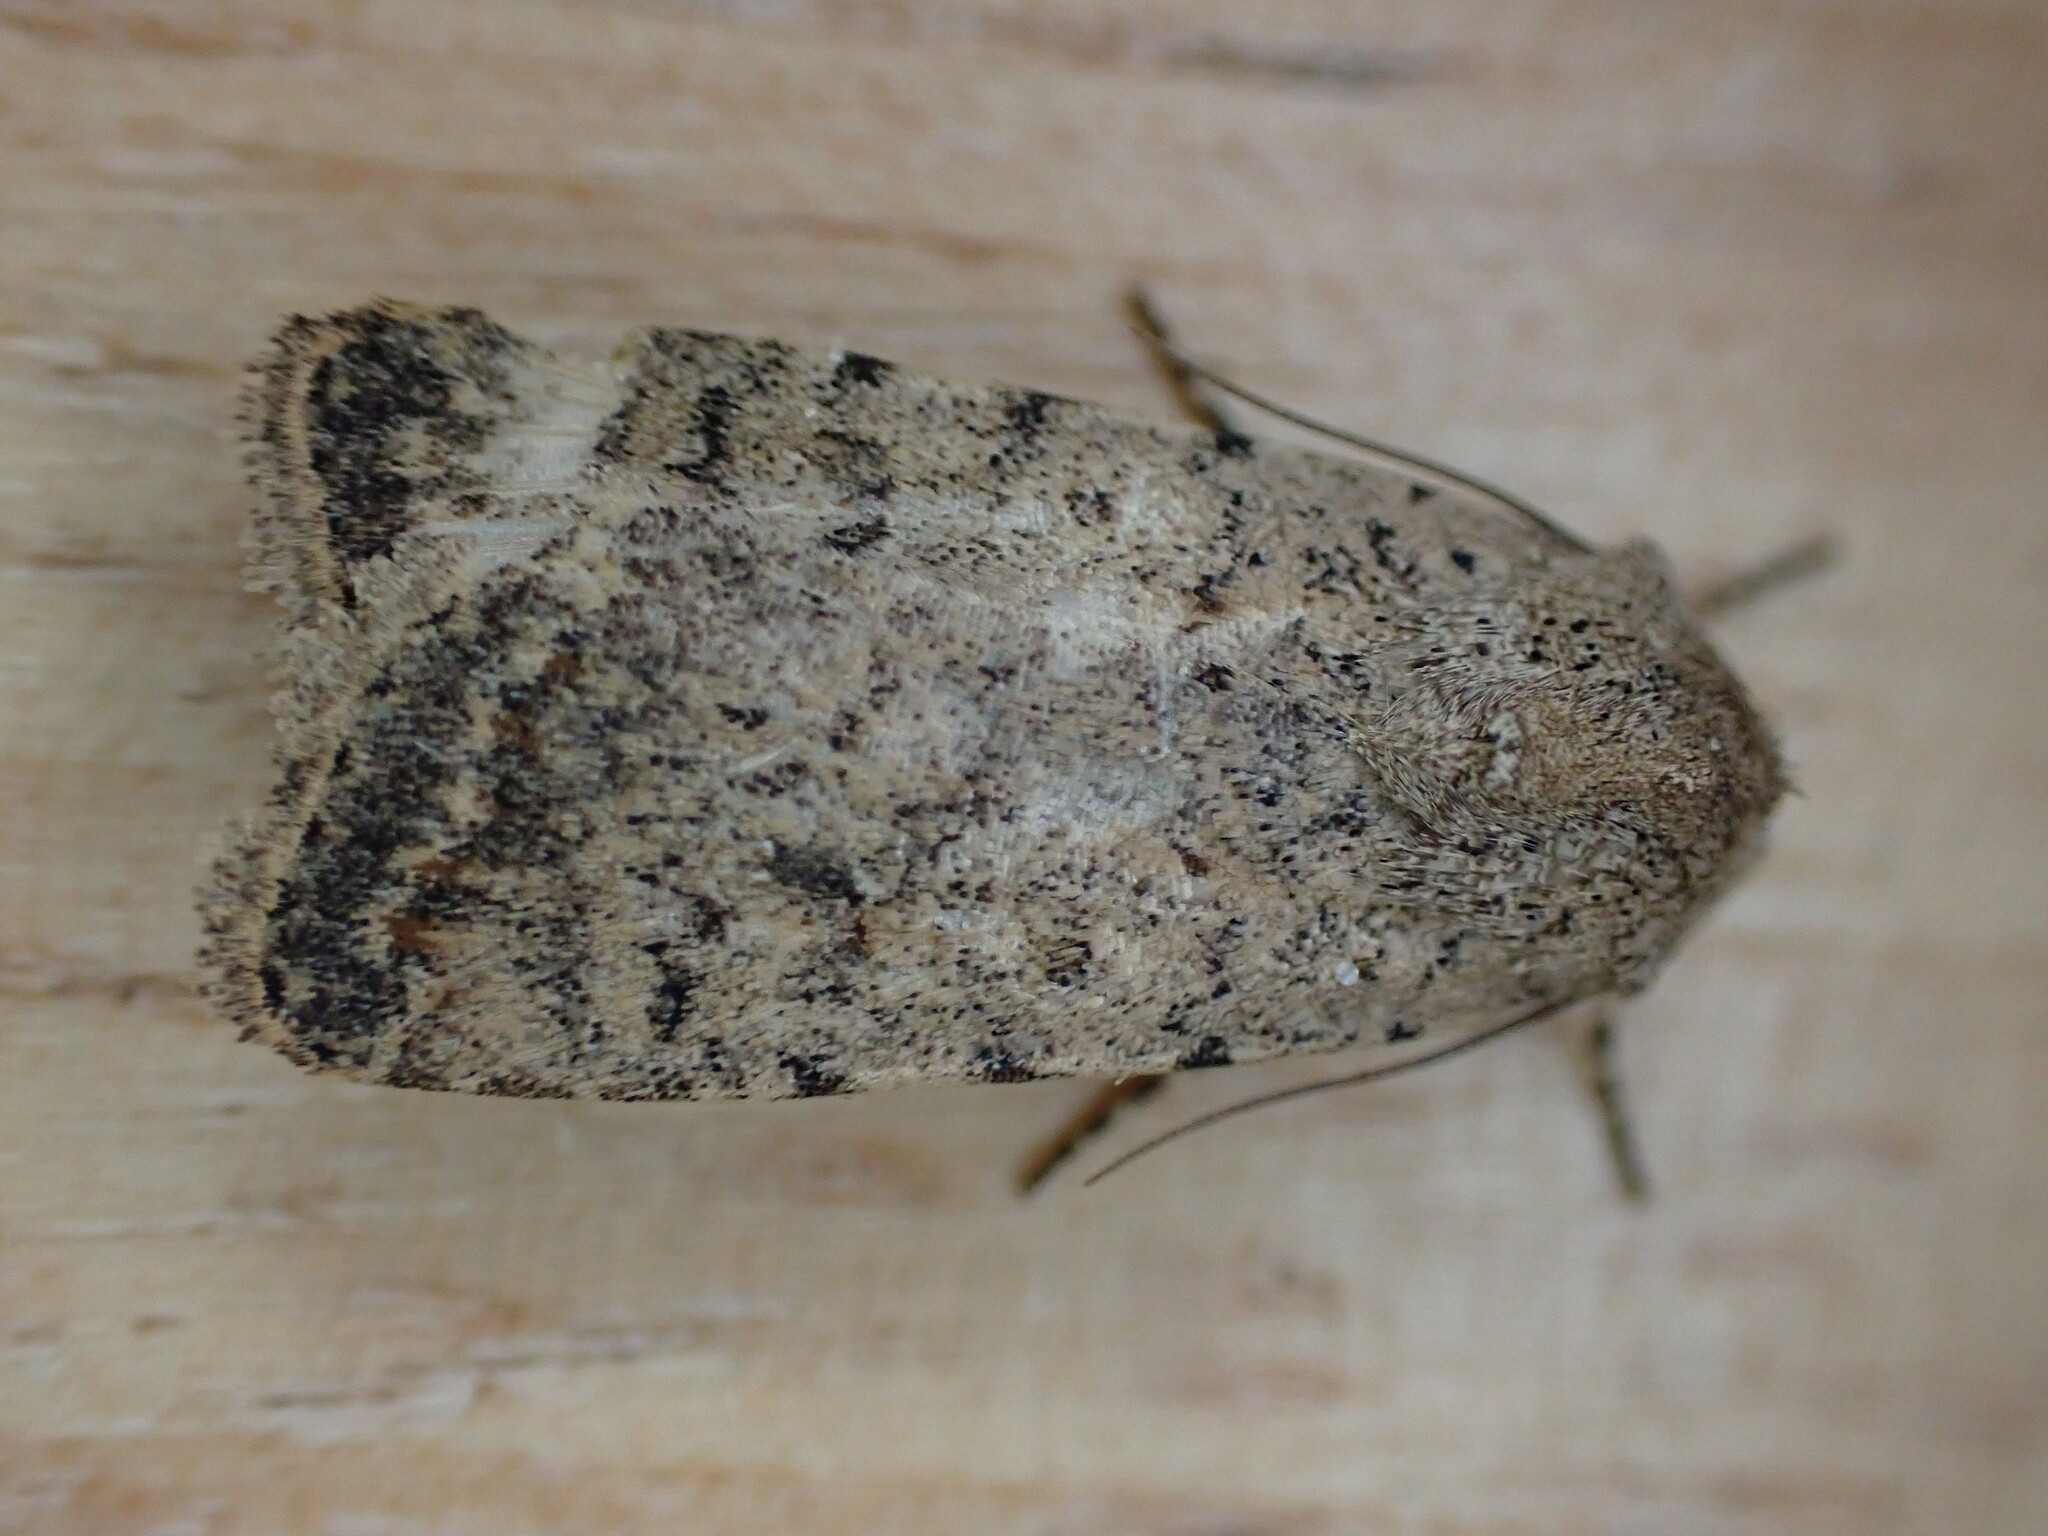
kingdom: Animalia
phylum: Arthropoda
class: Insecta
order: Lepidoptera
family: Noctuidae
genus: Caradrina
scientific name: Caradrina clavipalpis
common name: Pale mottled willow
